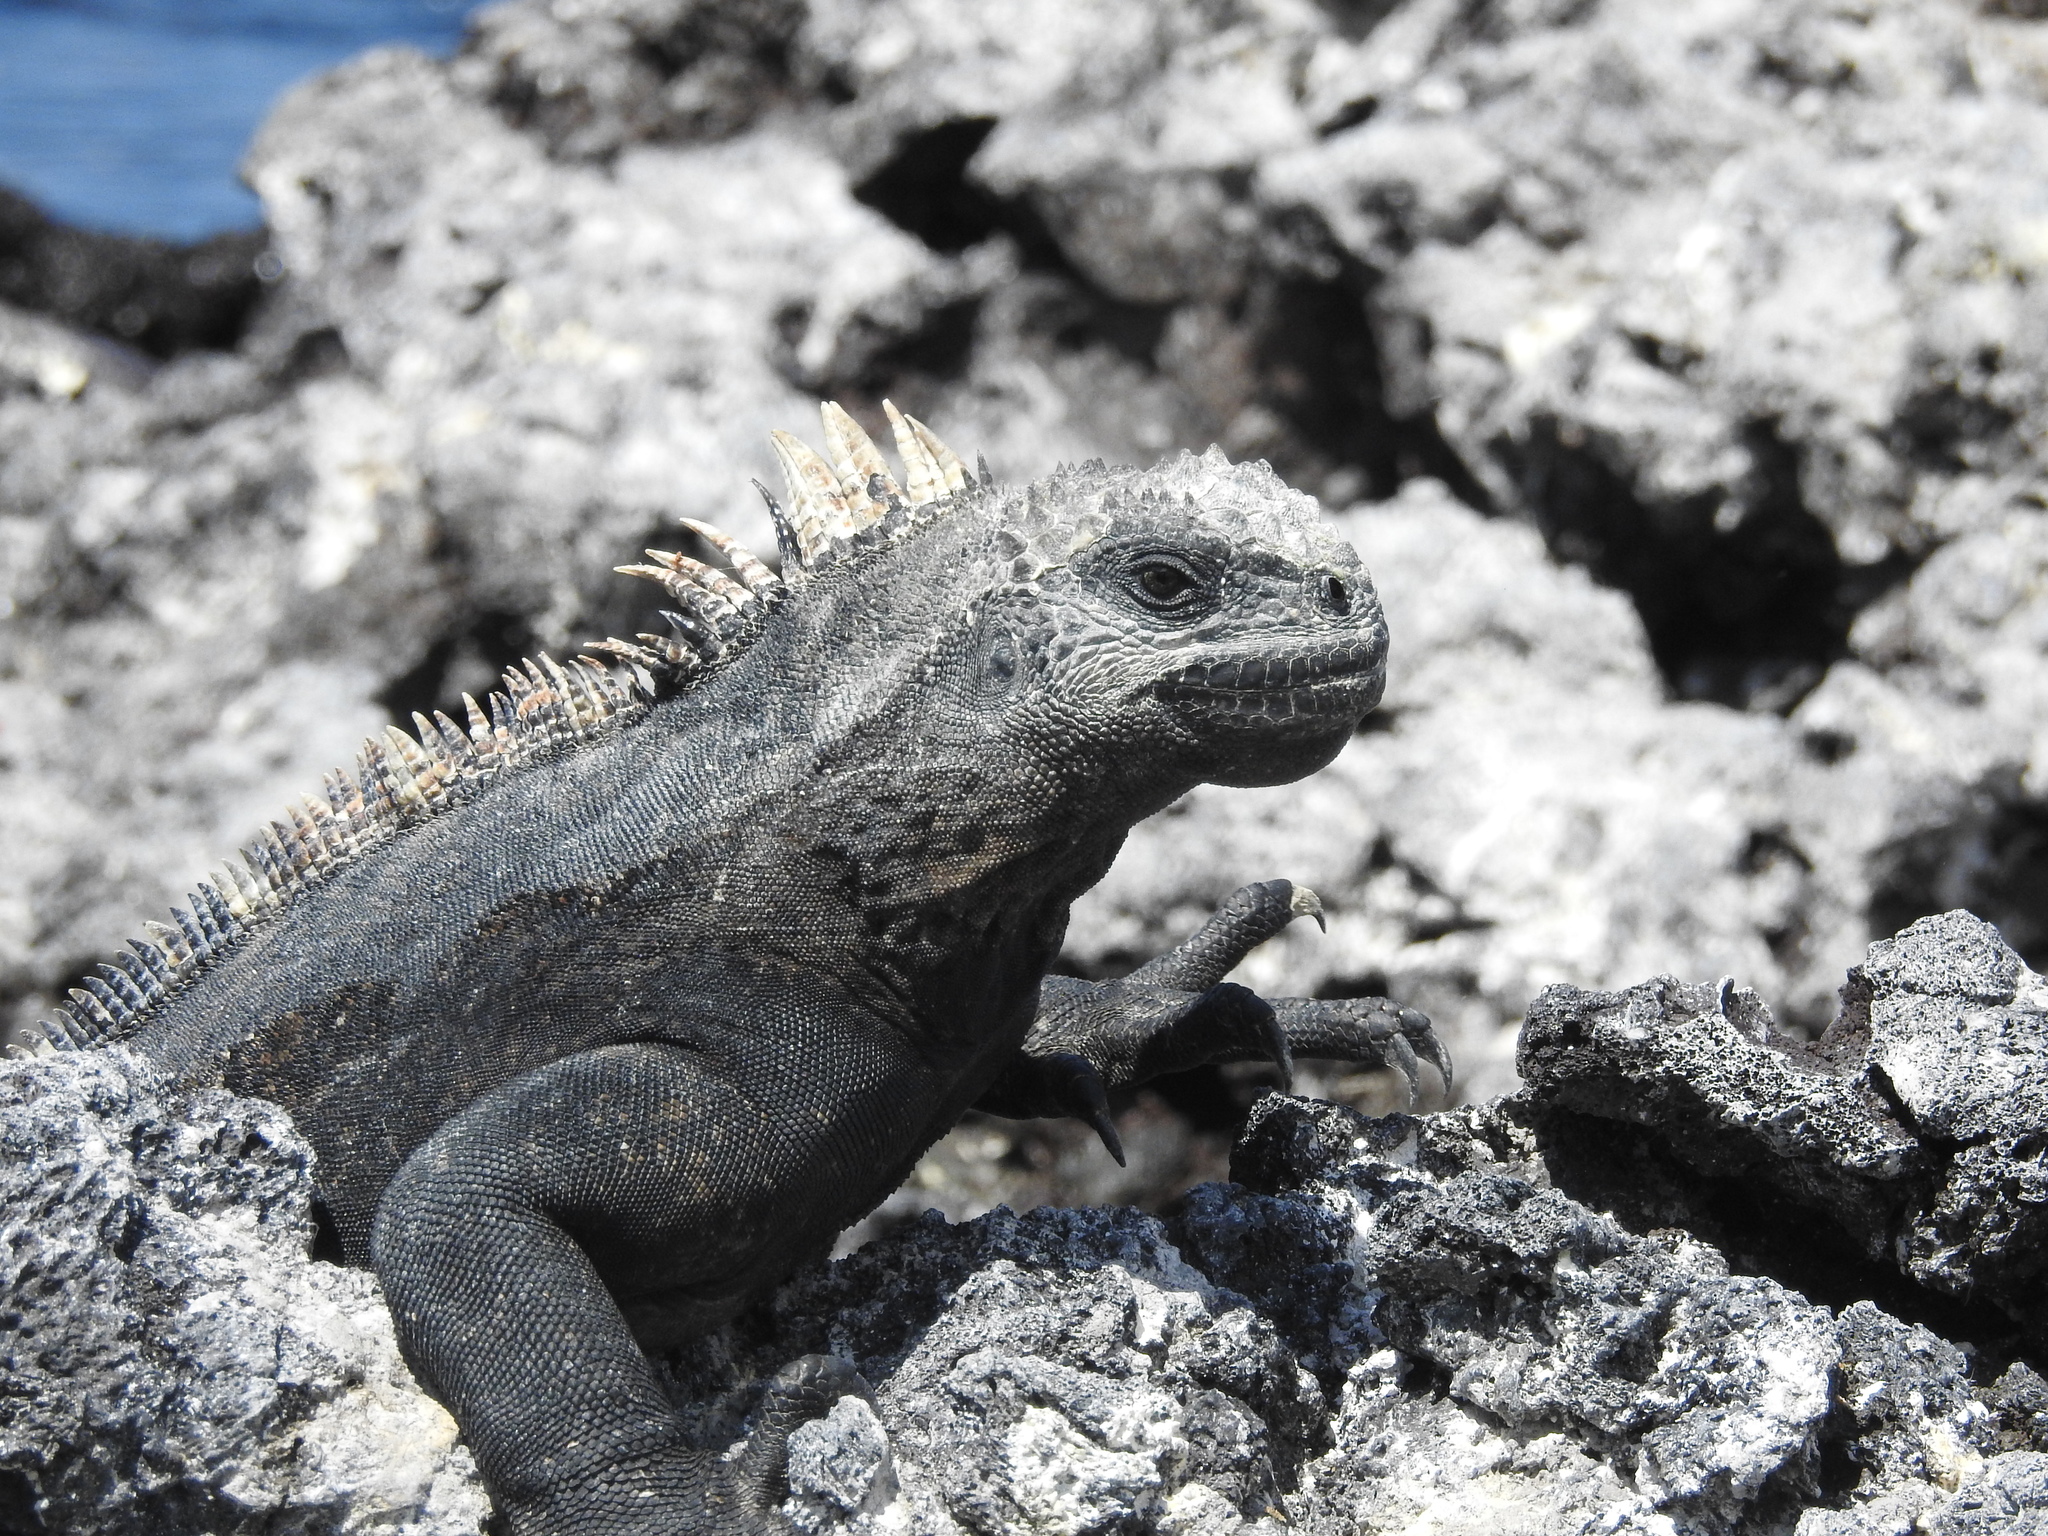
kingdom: Animalia
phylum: Chordata
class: Squamata
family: Iguanidae
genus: Amblyrhynchus
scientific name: Amblyrhynchus cristatus
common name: Marine iguana
